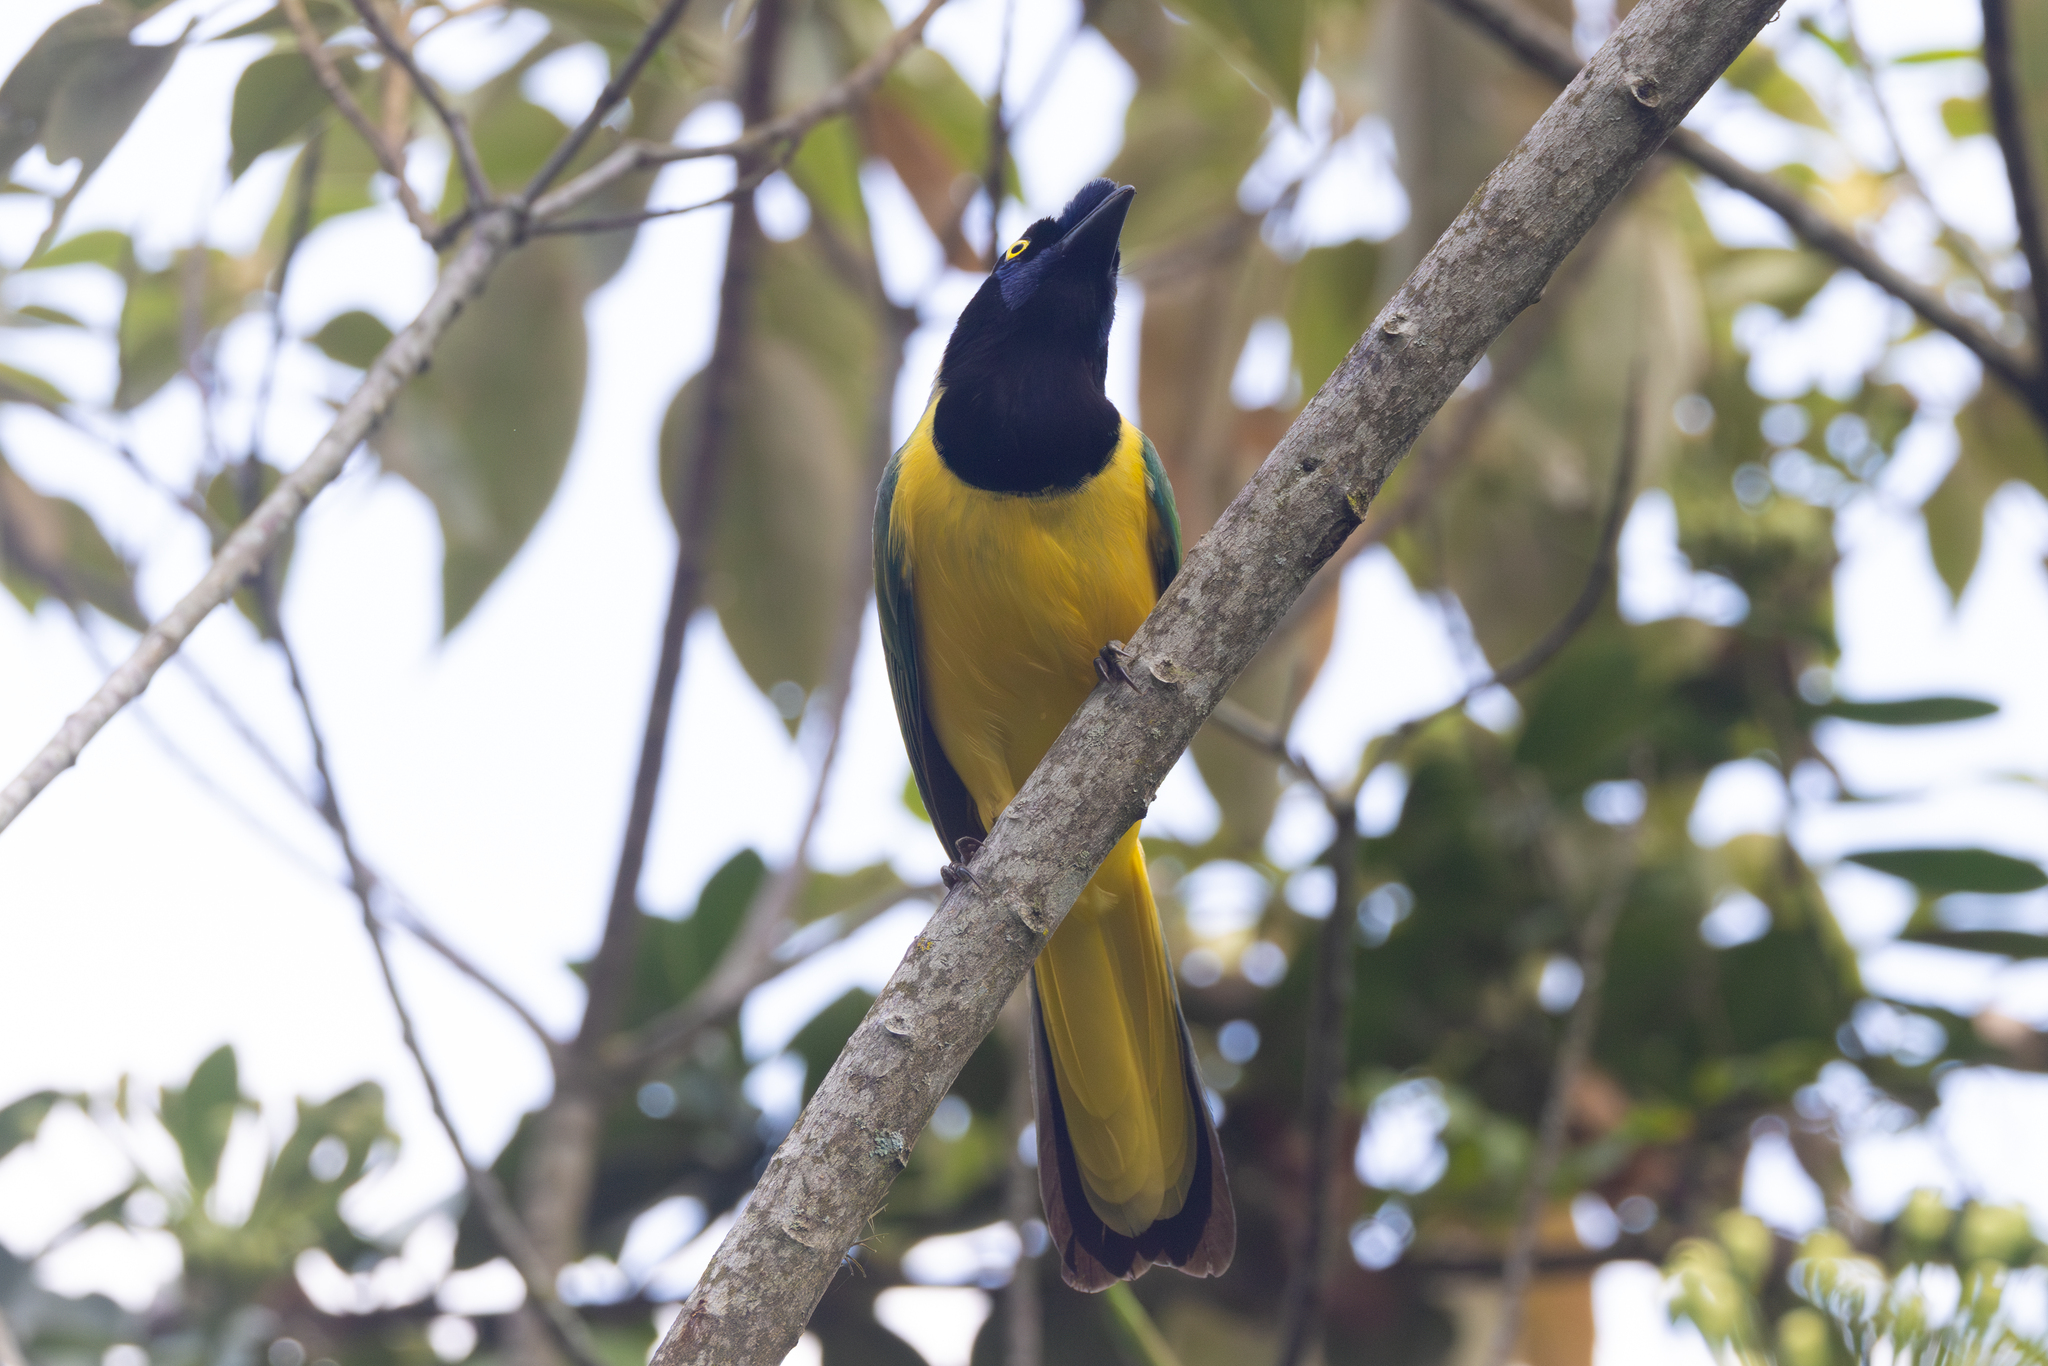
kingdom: Animalia
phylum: Chordata
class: Aves
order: Passeriformes
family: Corvidae
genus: Cyanocorax
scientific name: Cyanocorax yncas
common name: Green jay
